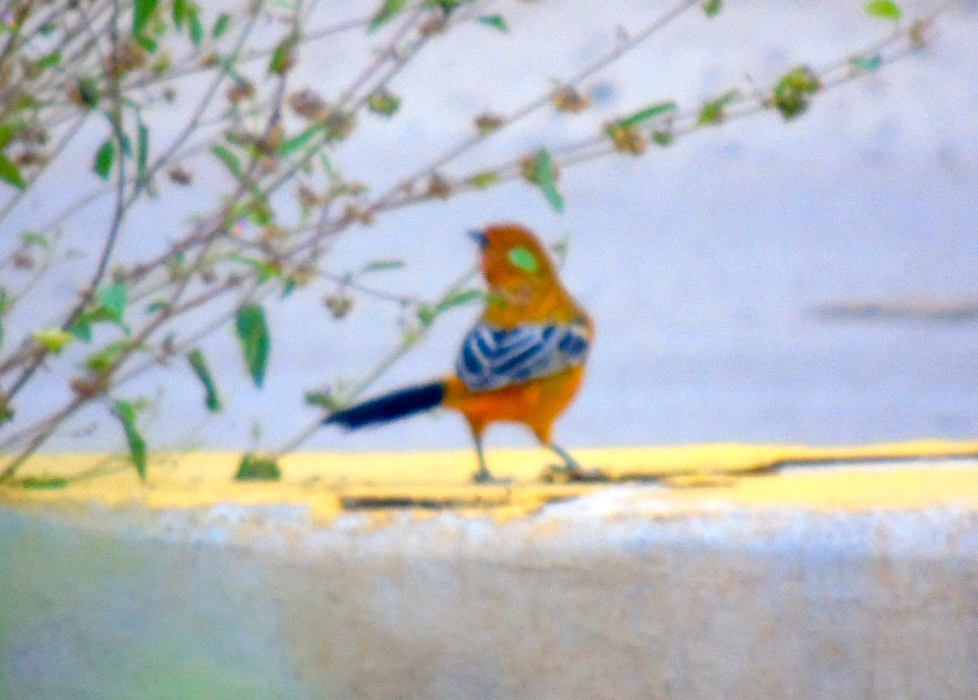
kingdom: Animalia
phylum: Chordata
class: Aves
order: Passeriformes
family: Icteridae
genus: Icterus
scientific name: Icterus pustulatus
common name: Streak-backed oriole
